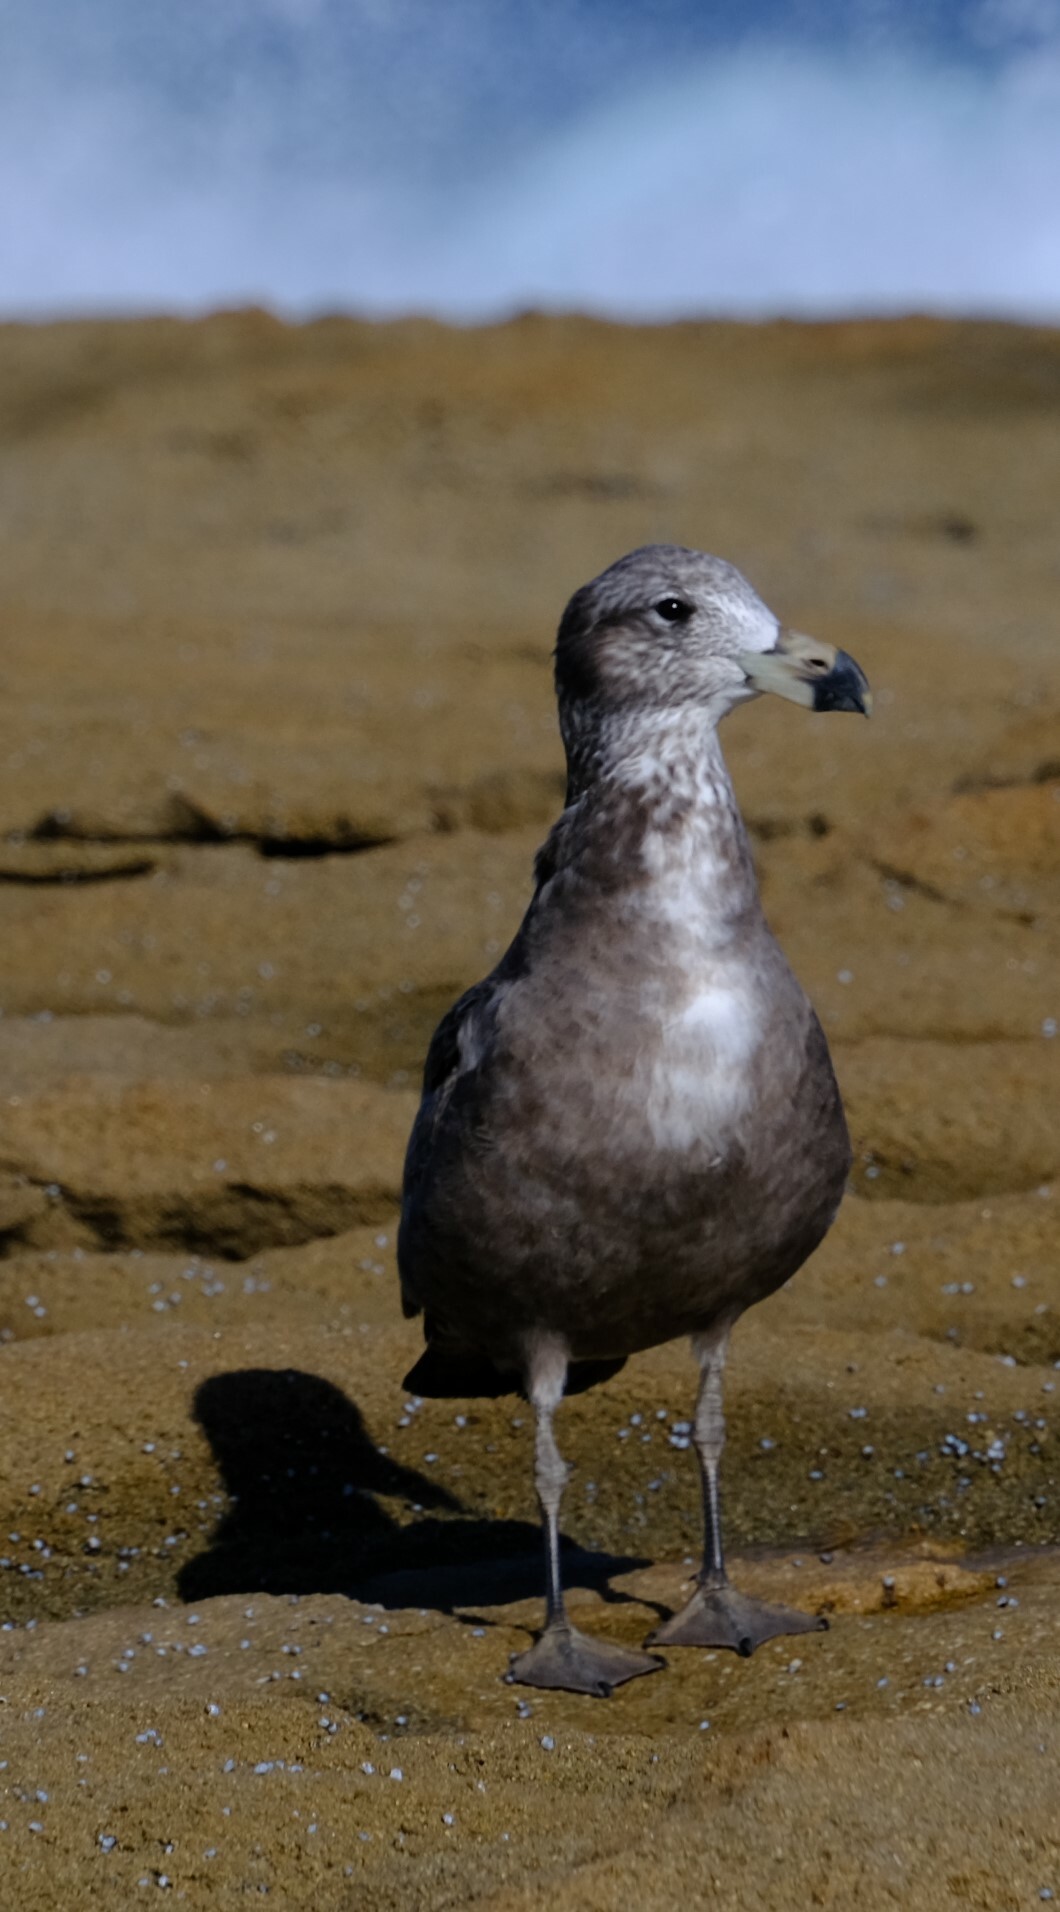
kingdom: Animalia
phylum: Chordata
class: Aves
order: Charadriiformes
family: Laridae
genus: Larus
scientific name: Larus pacificus
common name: Pacific gull
